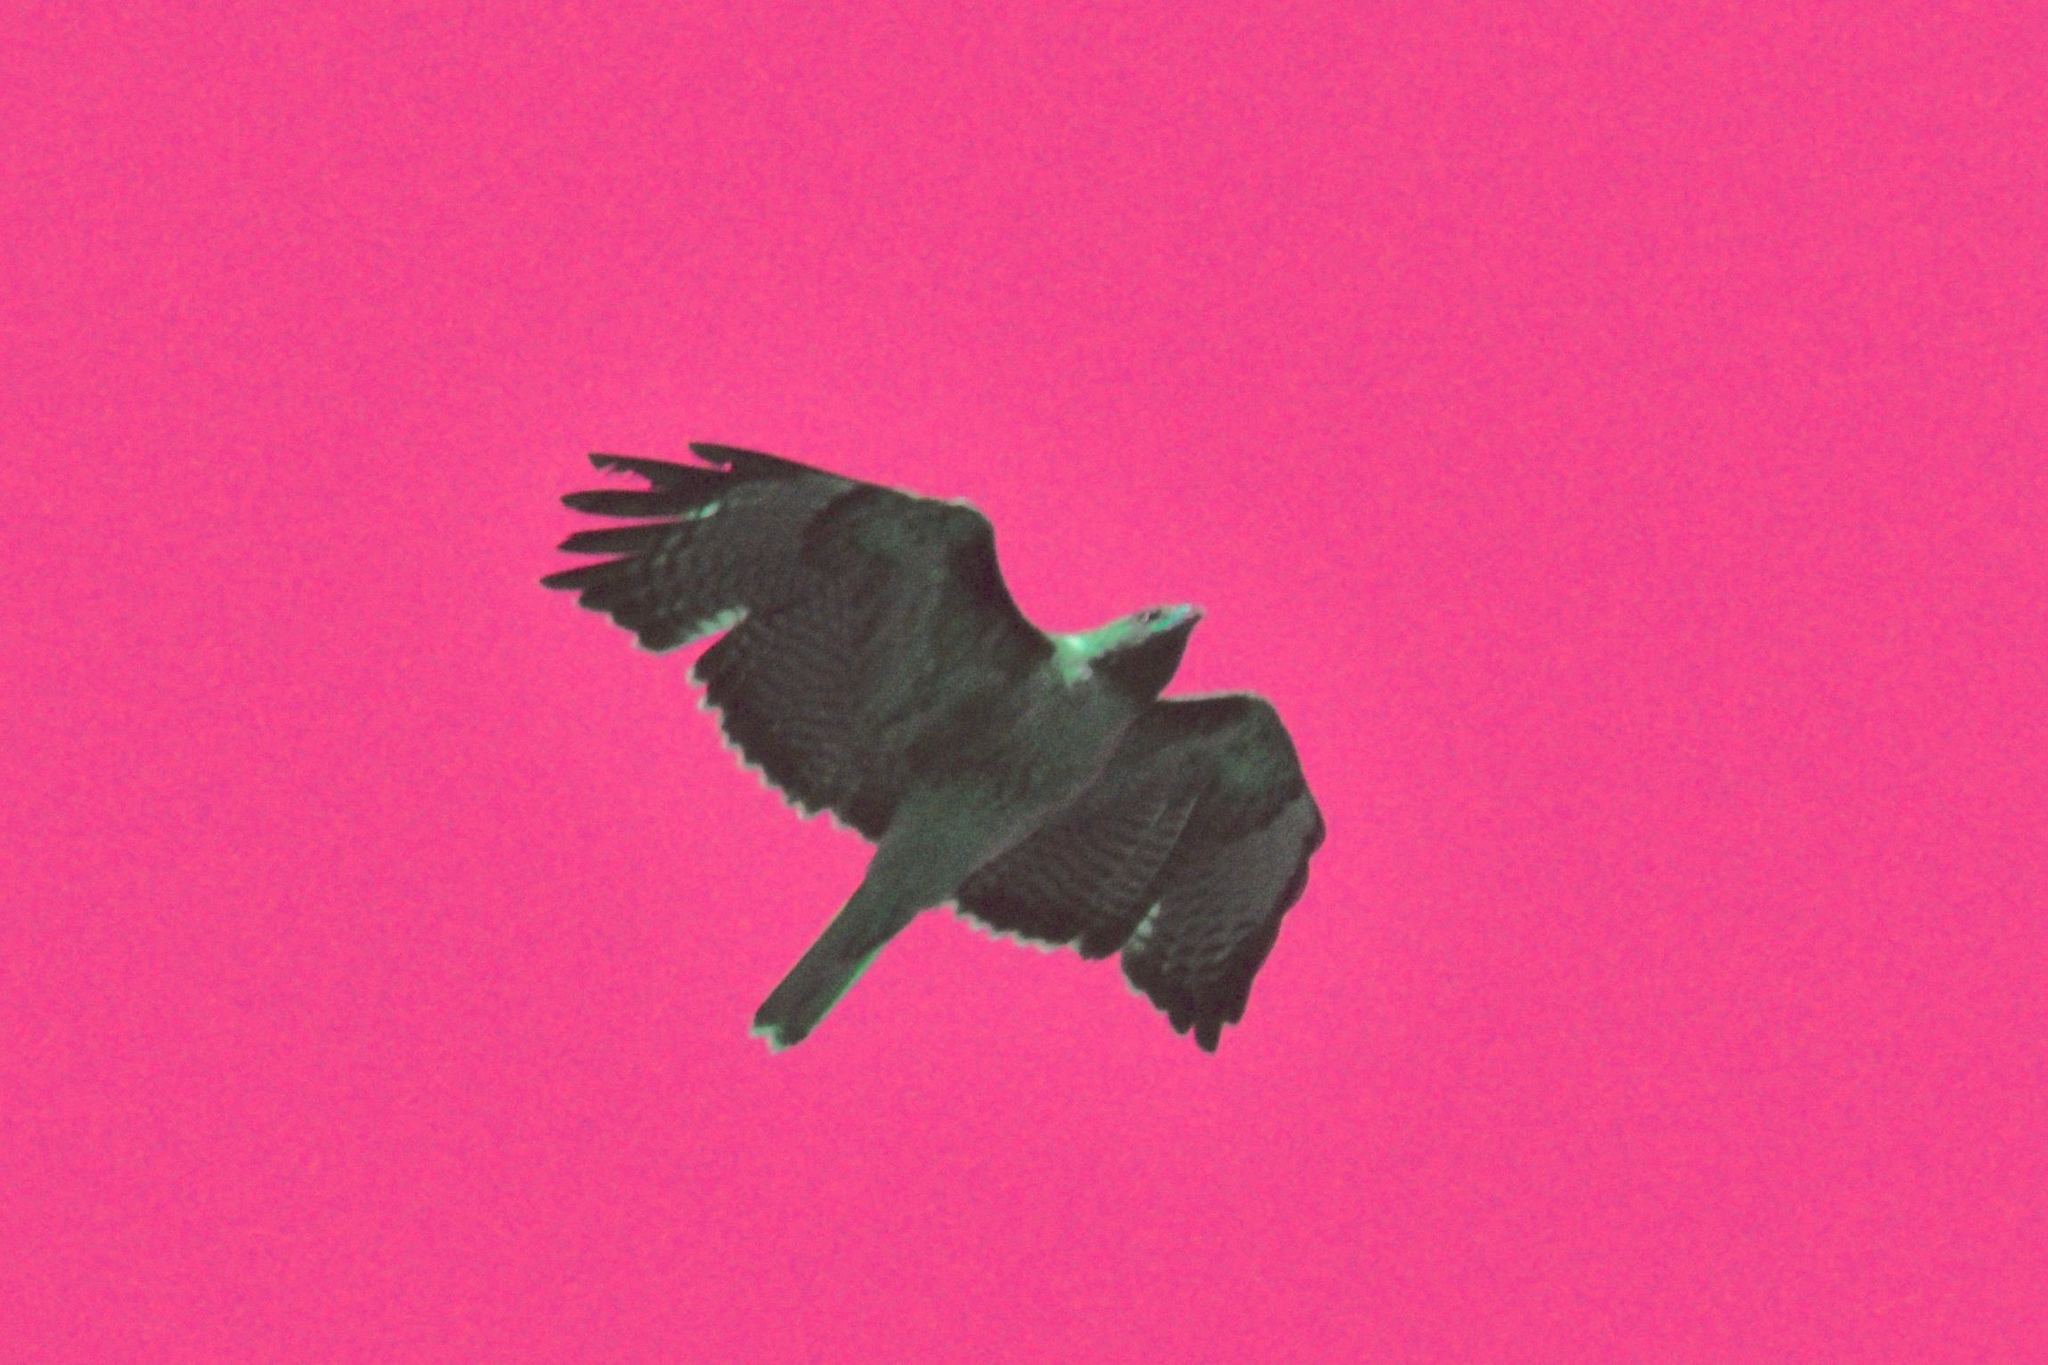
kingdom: Animalia
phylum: Chordata
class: Aves
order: Accipitriformes
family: Accipitridae
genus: Buteo
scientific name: Buteo jamaicensis
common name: Red-tailed hawk
